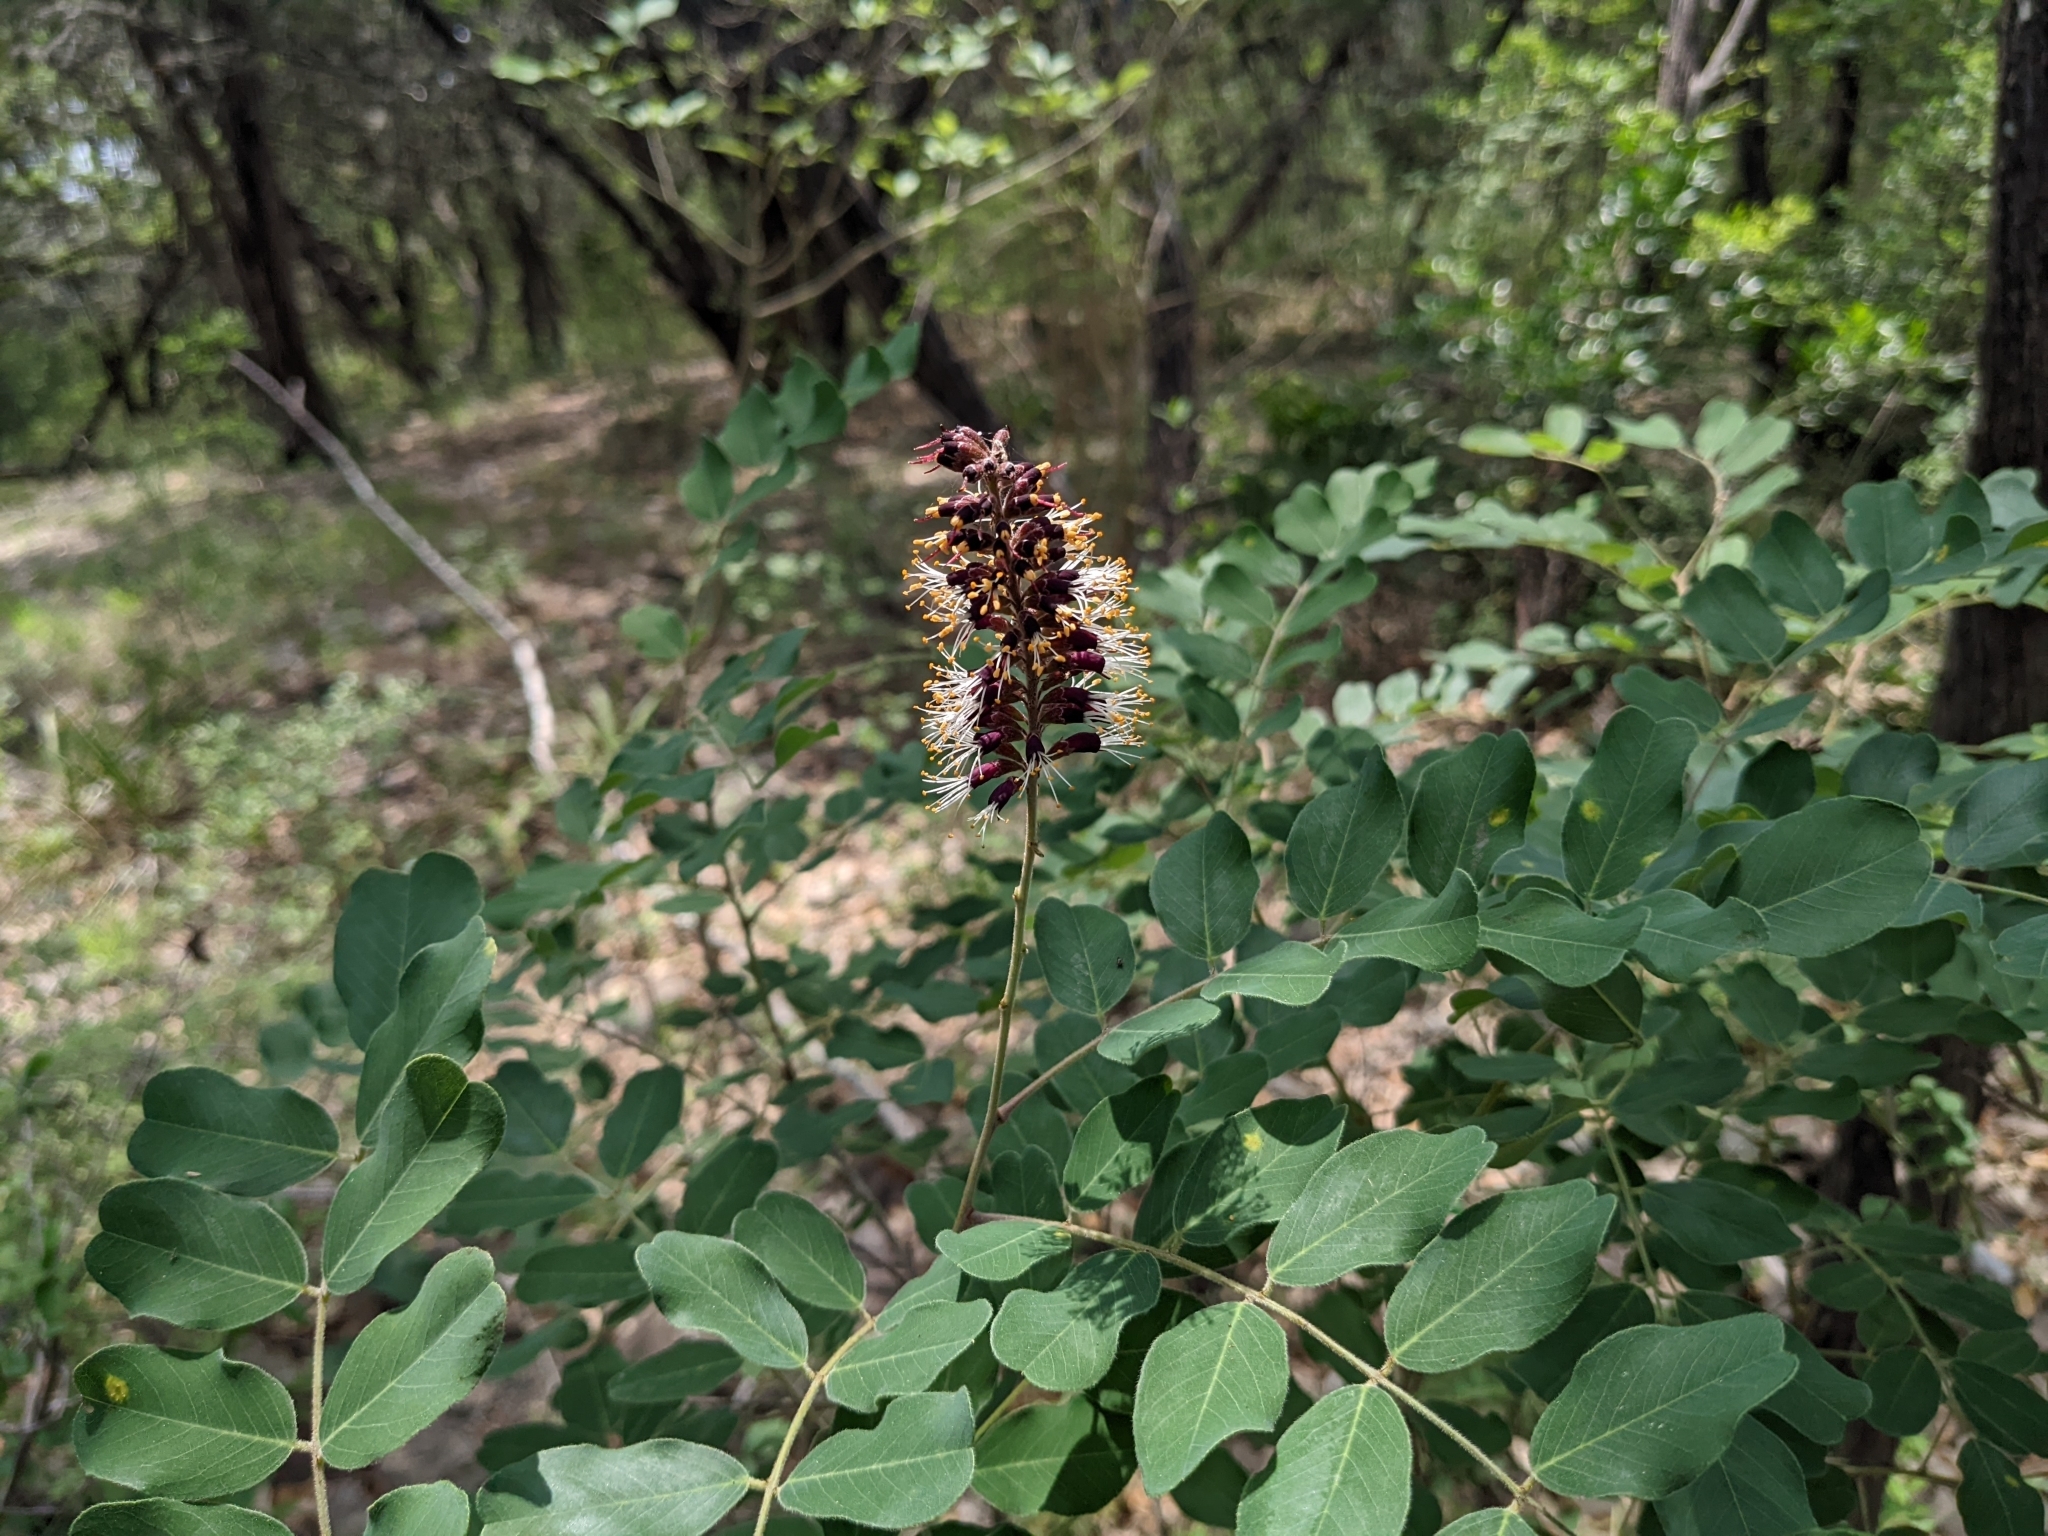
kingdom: Plantae
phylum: Tracheophyta
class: Magnoliopsida
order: Fabales
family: Fabaceae
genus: Amorpha
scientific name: Amorpha roemeriana
